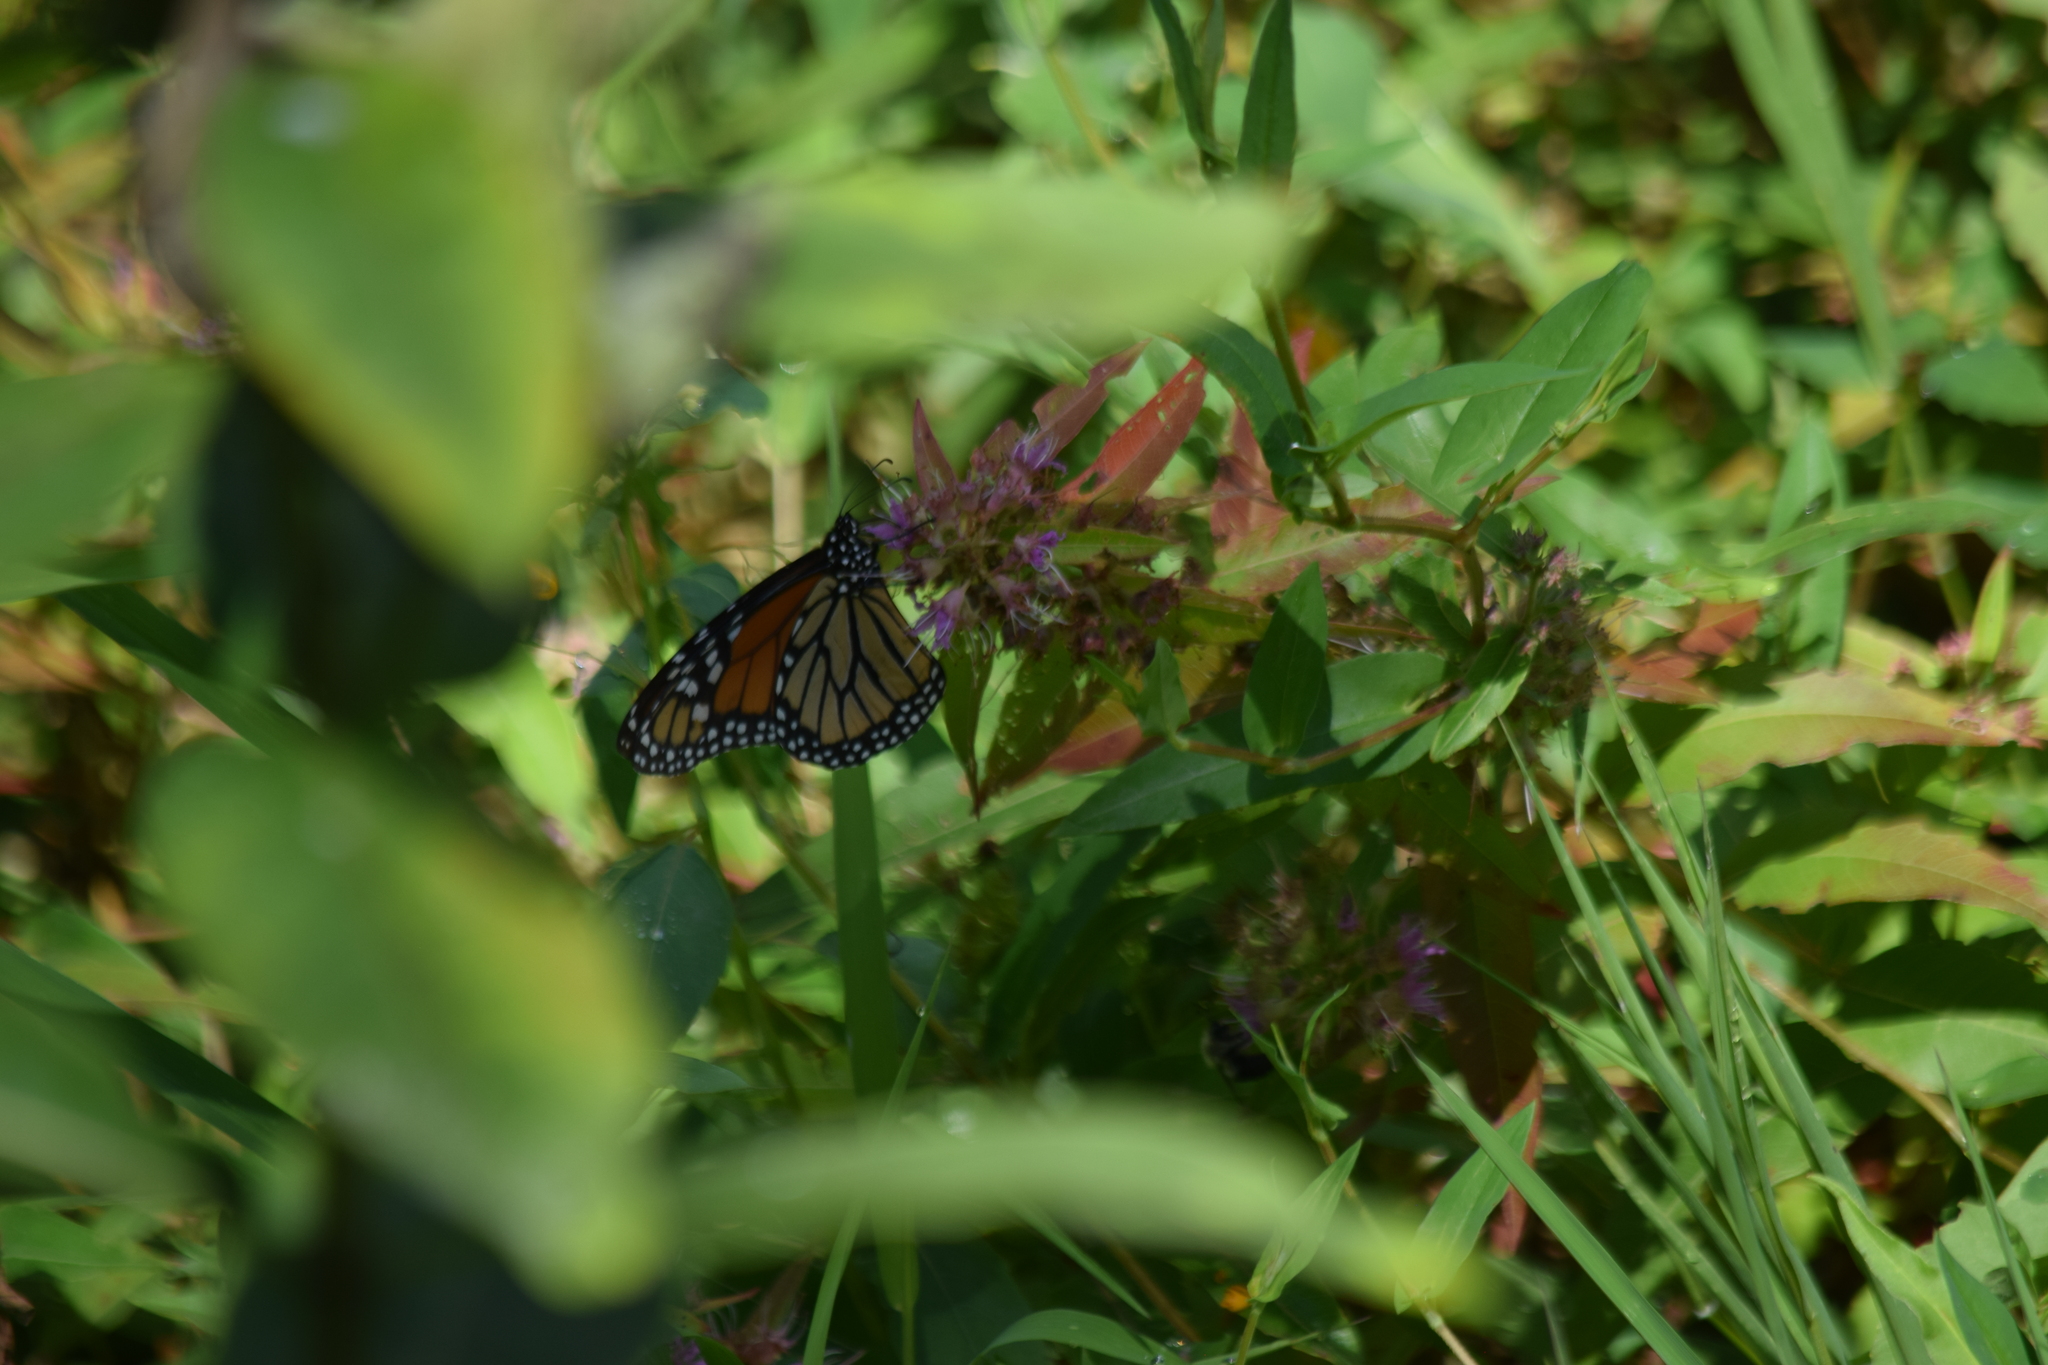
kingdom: Animalia
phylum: Arthropoda
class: Insecta
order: Lepidoptera
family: Nymphalidae
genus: Danaus
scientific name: Danaus plexippus
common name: Monarch
